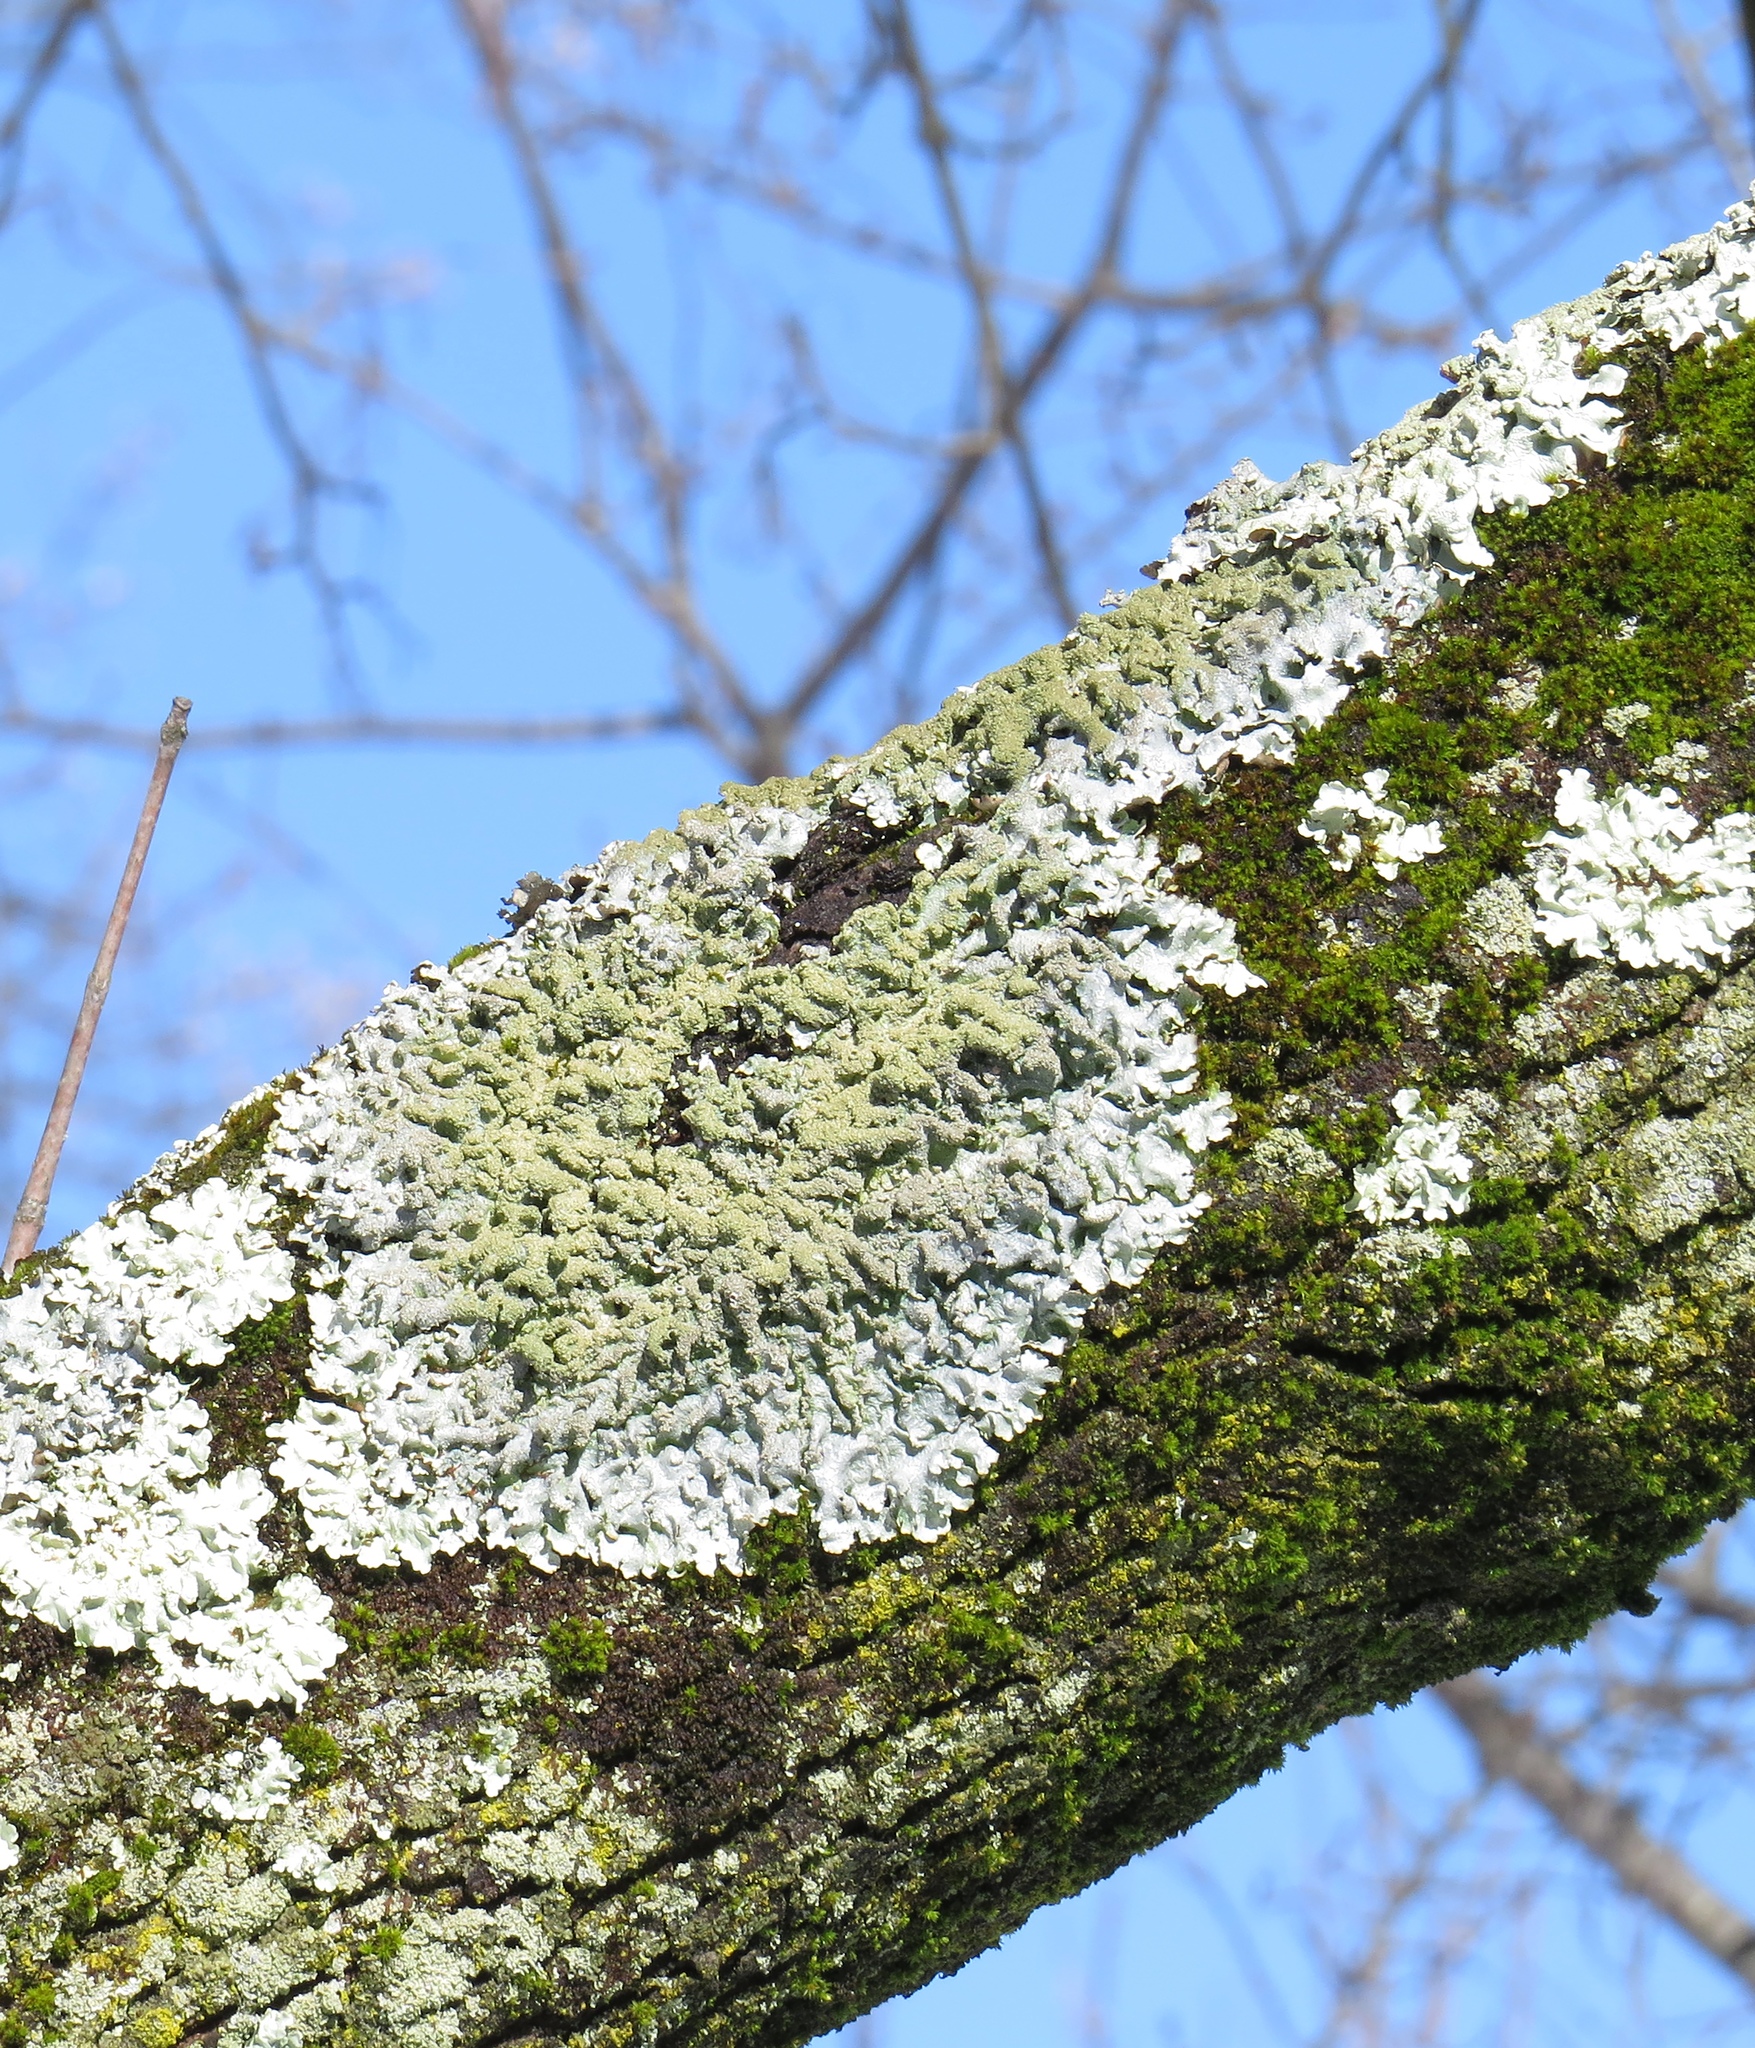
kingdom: Fungi
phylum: Ascomycota
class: Lecanoromycetes
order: Lecanorales
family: Parmeliaceae
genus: Punctelia
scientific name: Punctelia rudecta
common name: Rough speckled shield lichen
